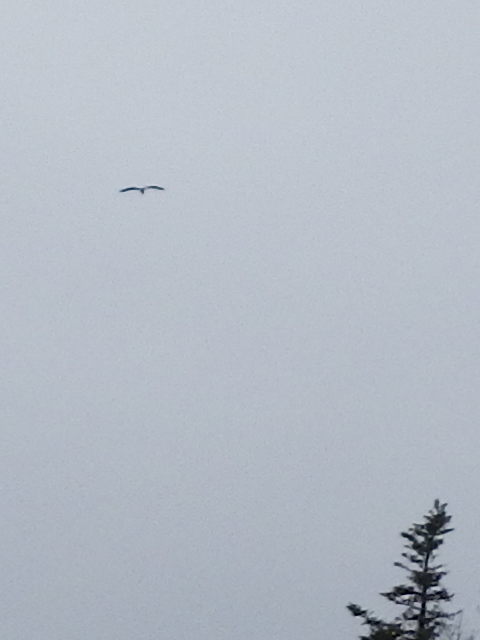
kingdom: Animalia
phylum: Chordata
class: Aves
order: Pelecaniformes
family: Ardeidae
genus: Ardea
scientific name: Ardea herodias
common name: Great blue heron
